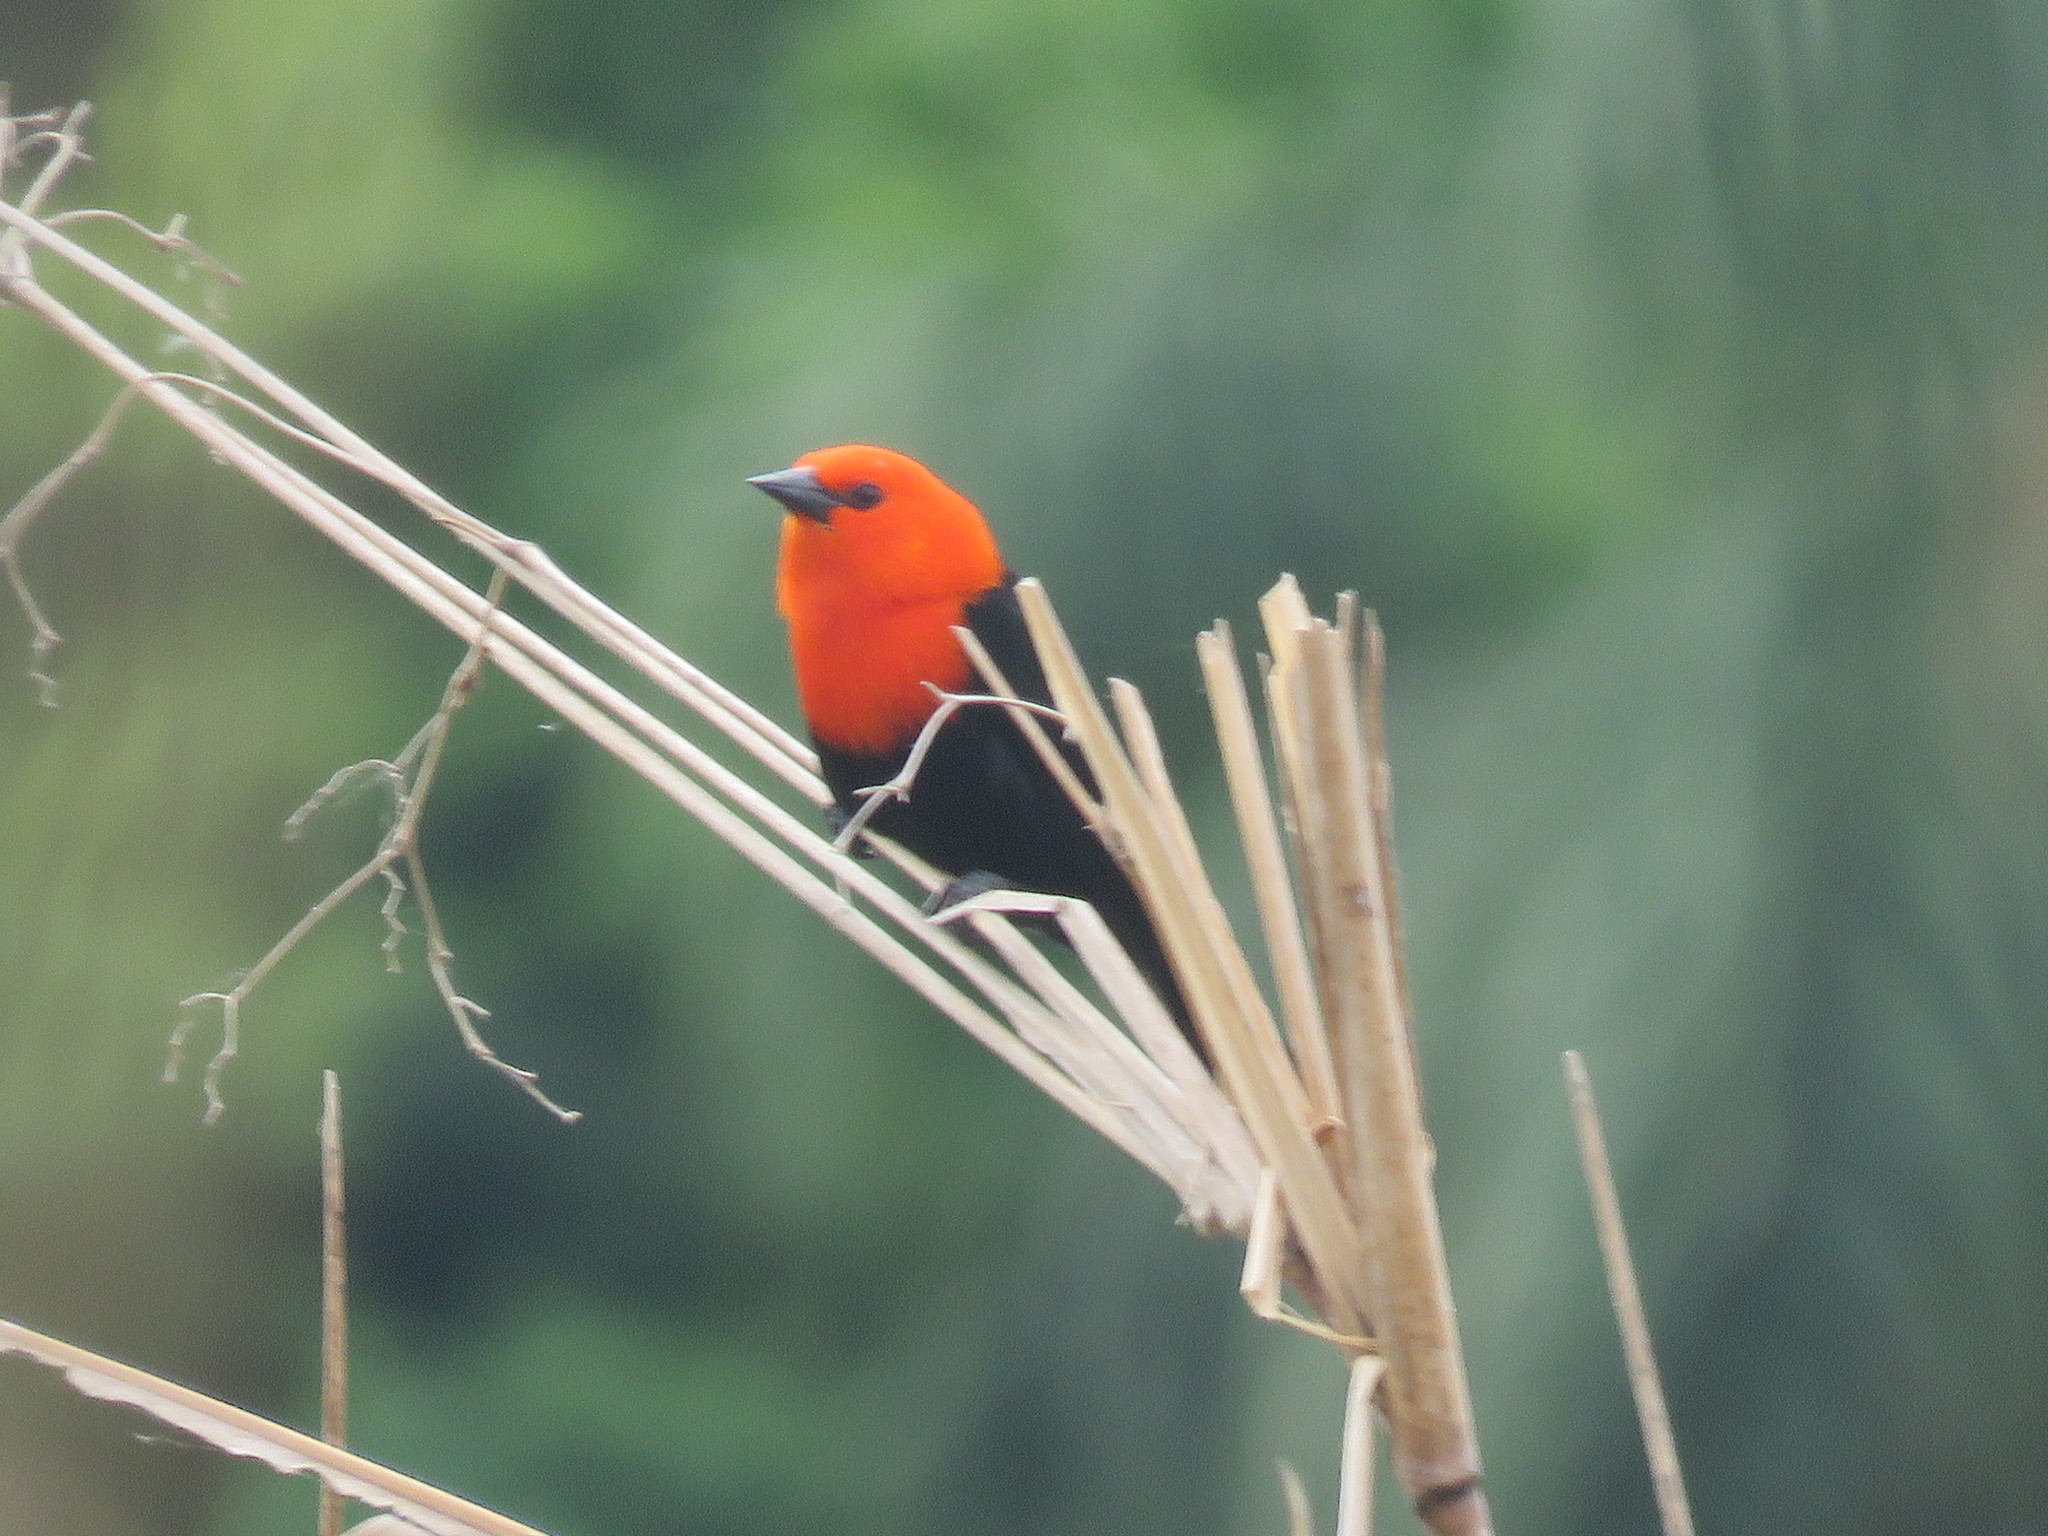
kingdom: Animalia
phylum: Chordata
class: Aves
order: Passeriformes
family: Icteridae
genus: Amblyramphus
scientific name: Amblyramphus holosericeus
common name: Scarlet-headed blackbird
